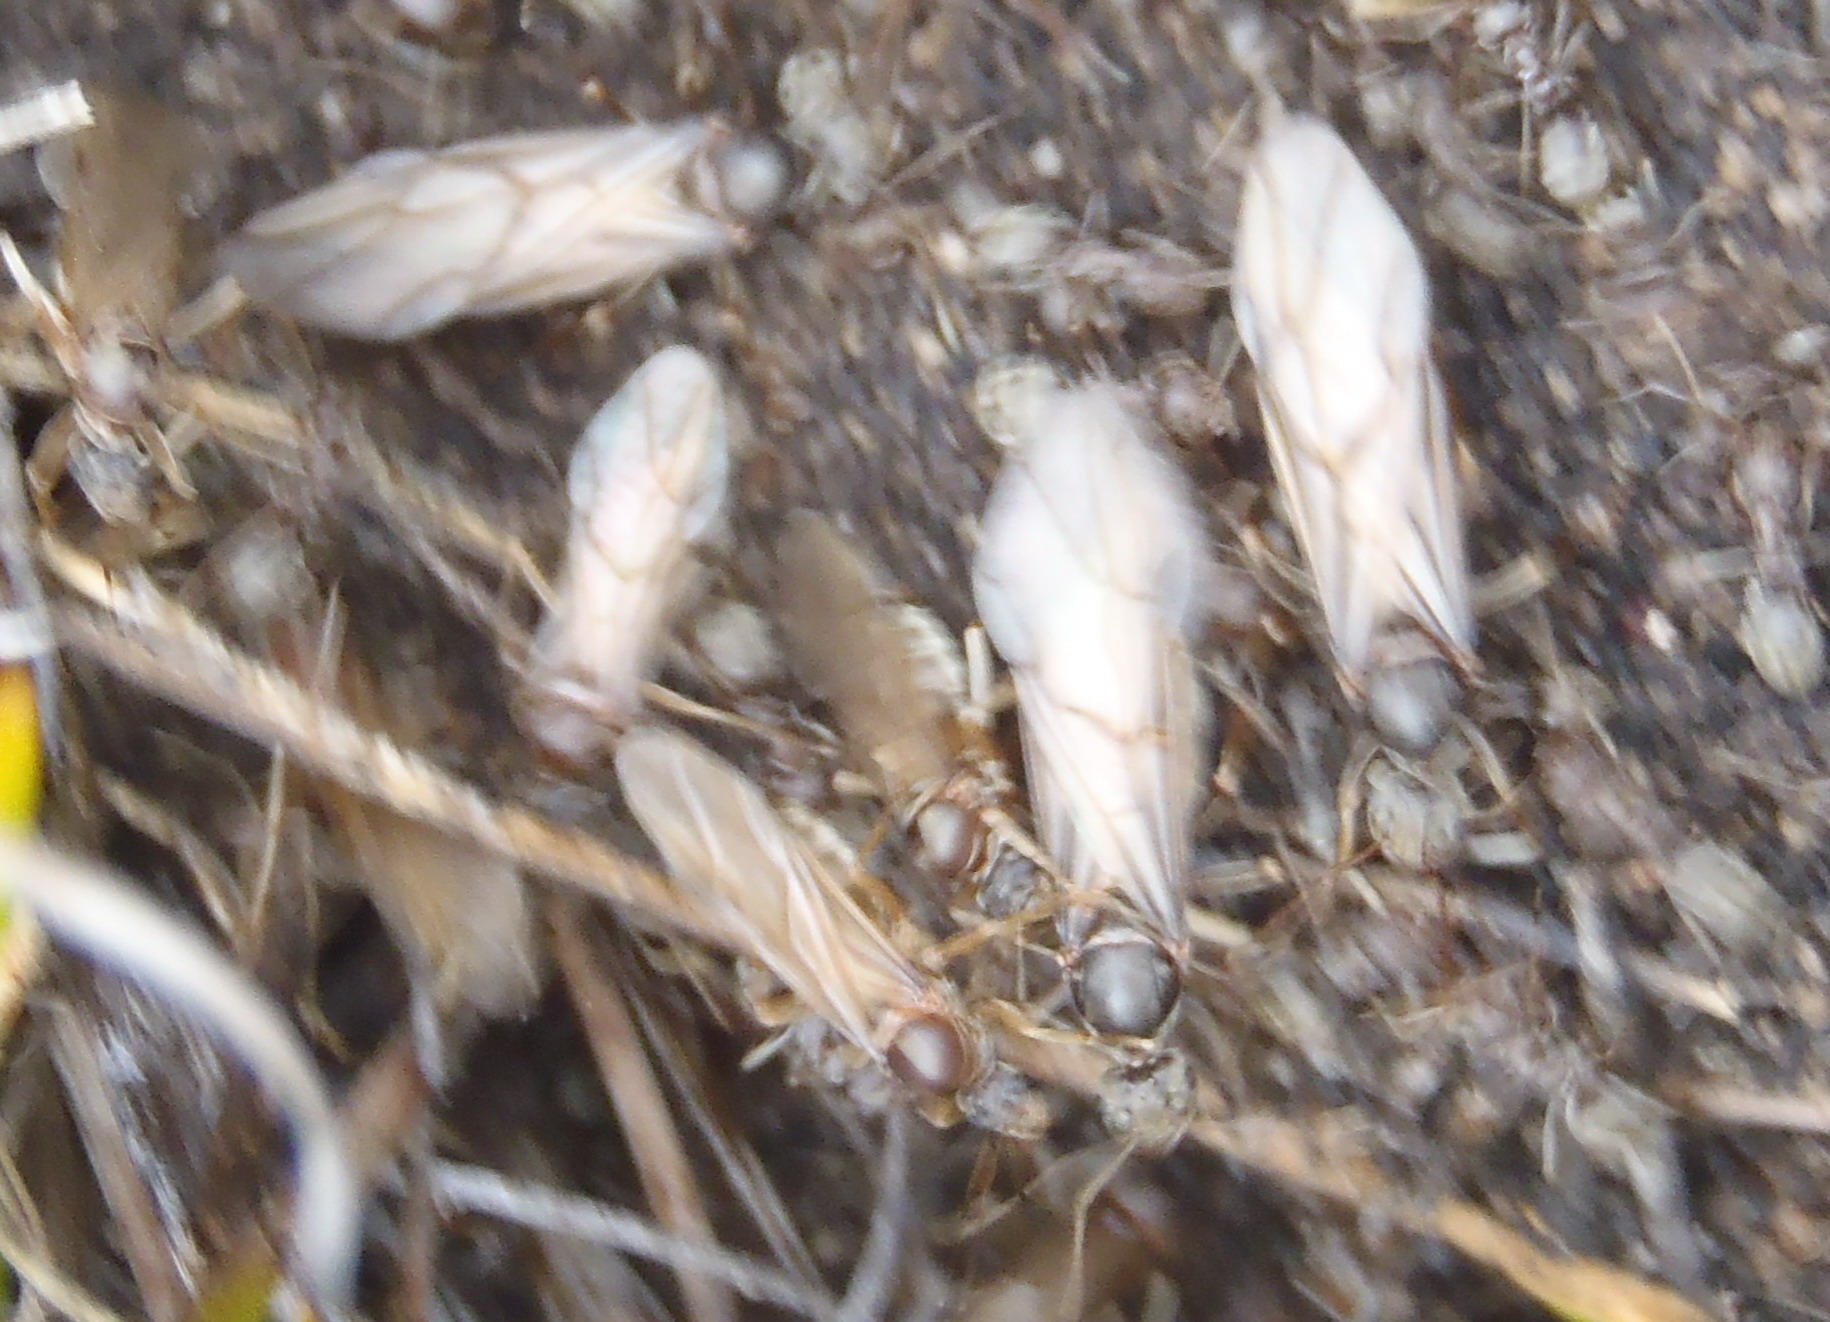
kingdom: Animalia
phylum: Arthropoda
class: Insecta
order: Blattodea
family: Termitidae
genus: Amitermes
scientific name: Amitermes hastatus
